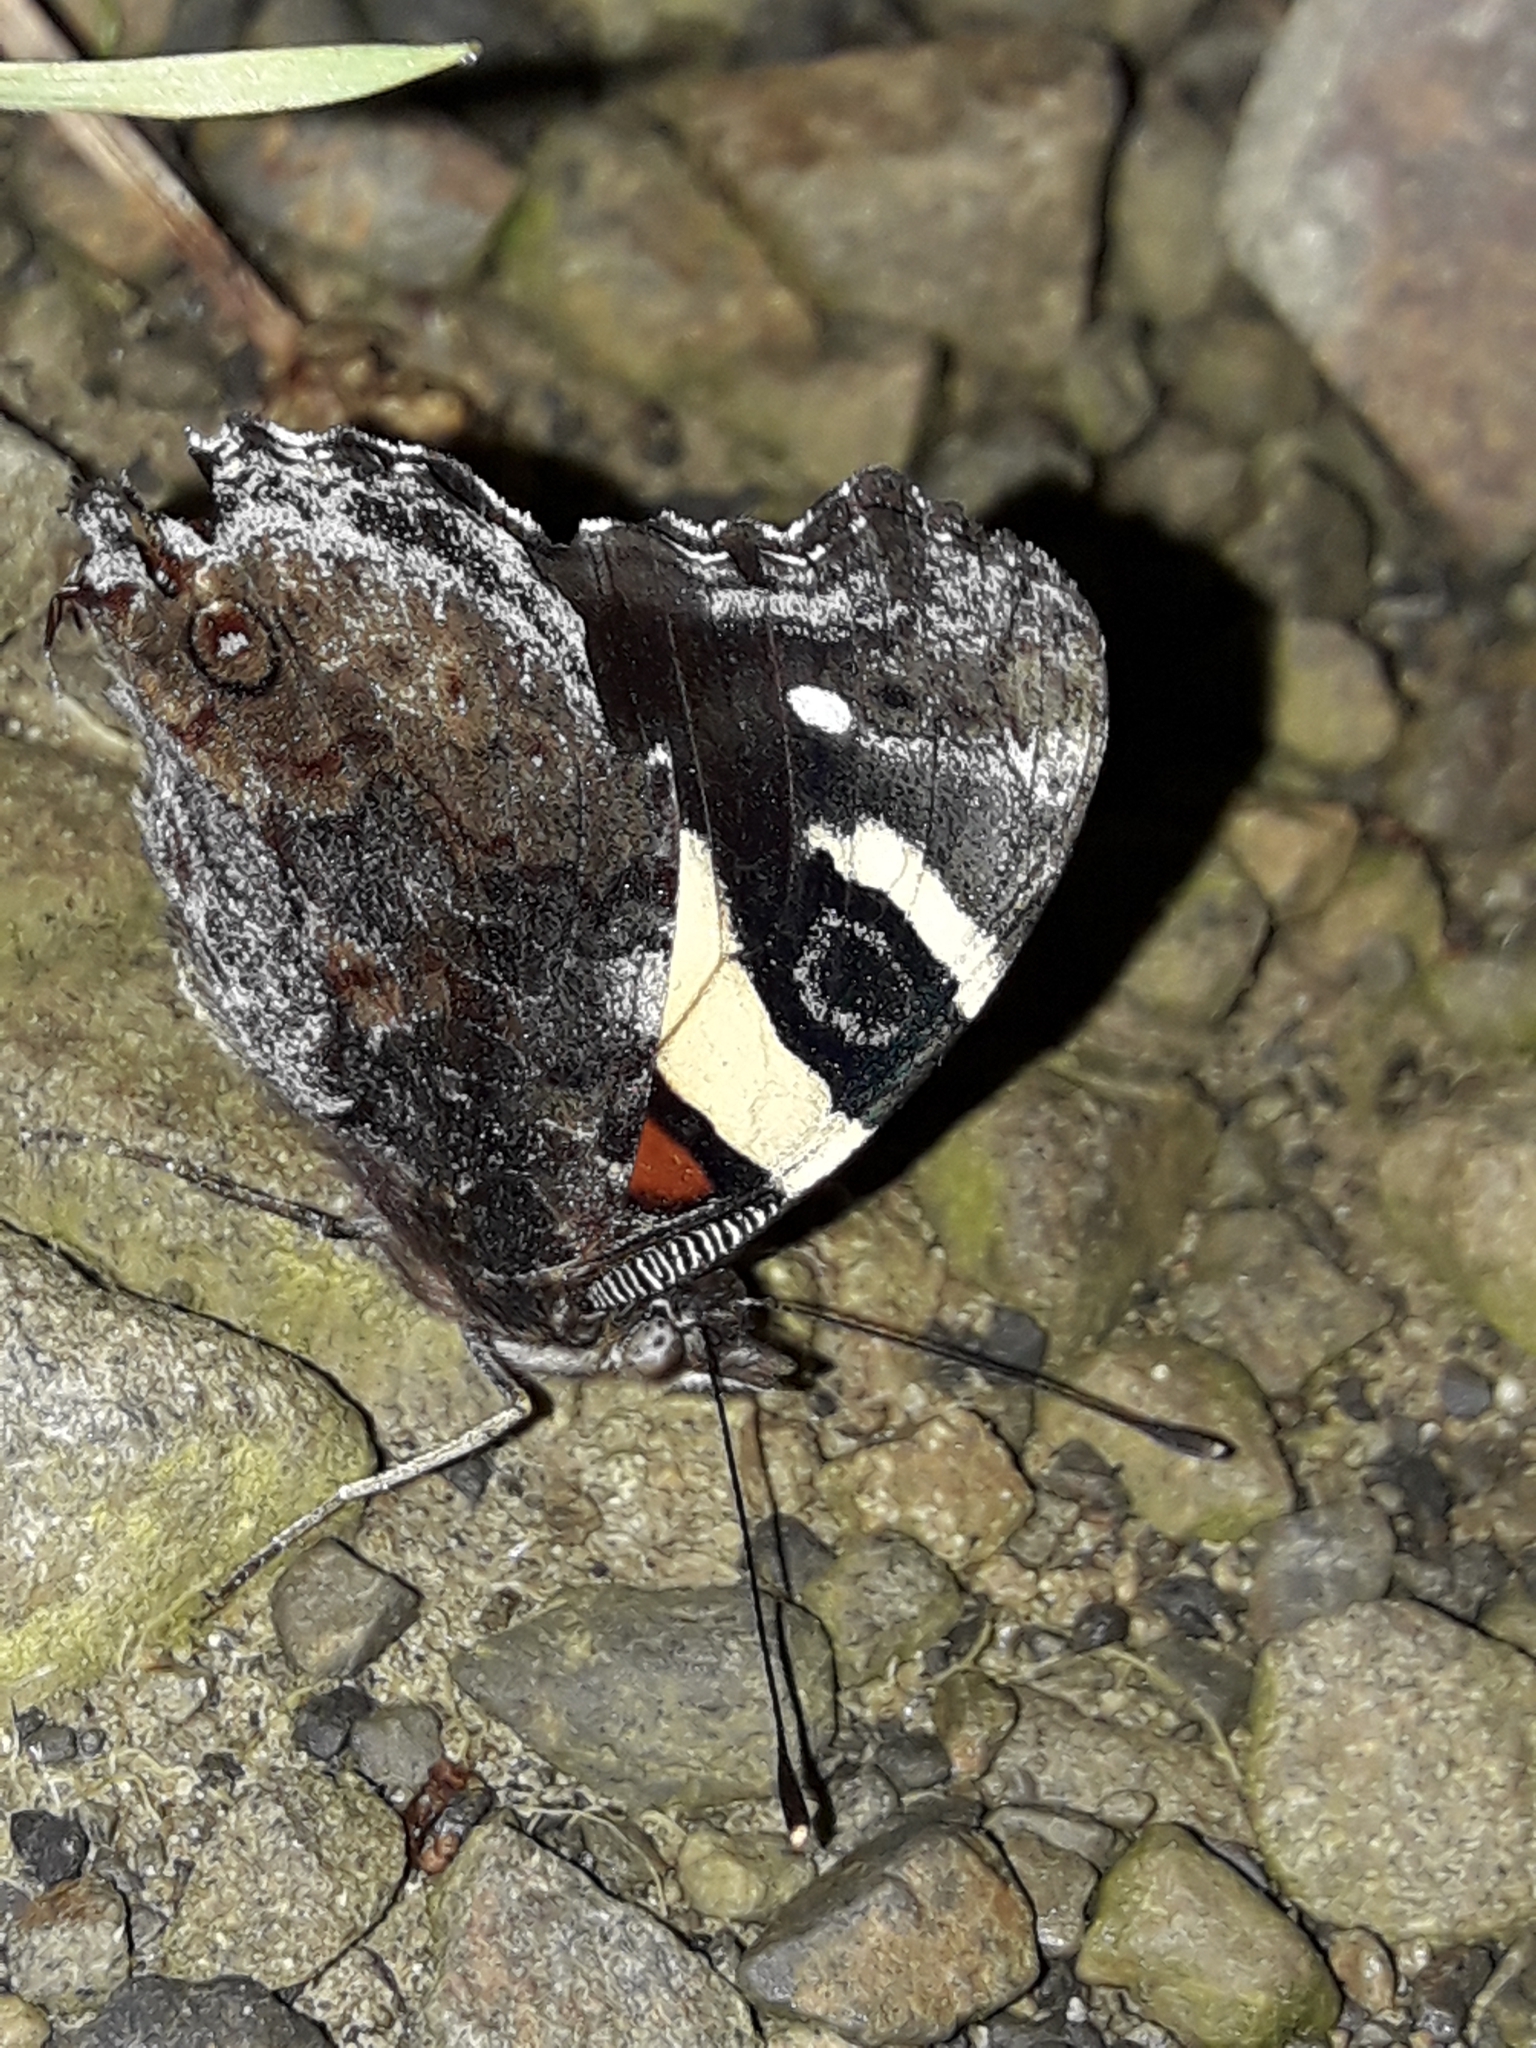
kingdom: Animalia
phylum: Arthropoda
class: Insecta
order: Lepidoptera
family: Nymphalidae
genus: Vanessa
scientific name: Vanessa itea
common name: Yellow admiral
